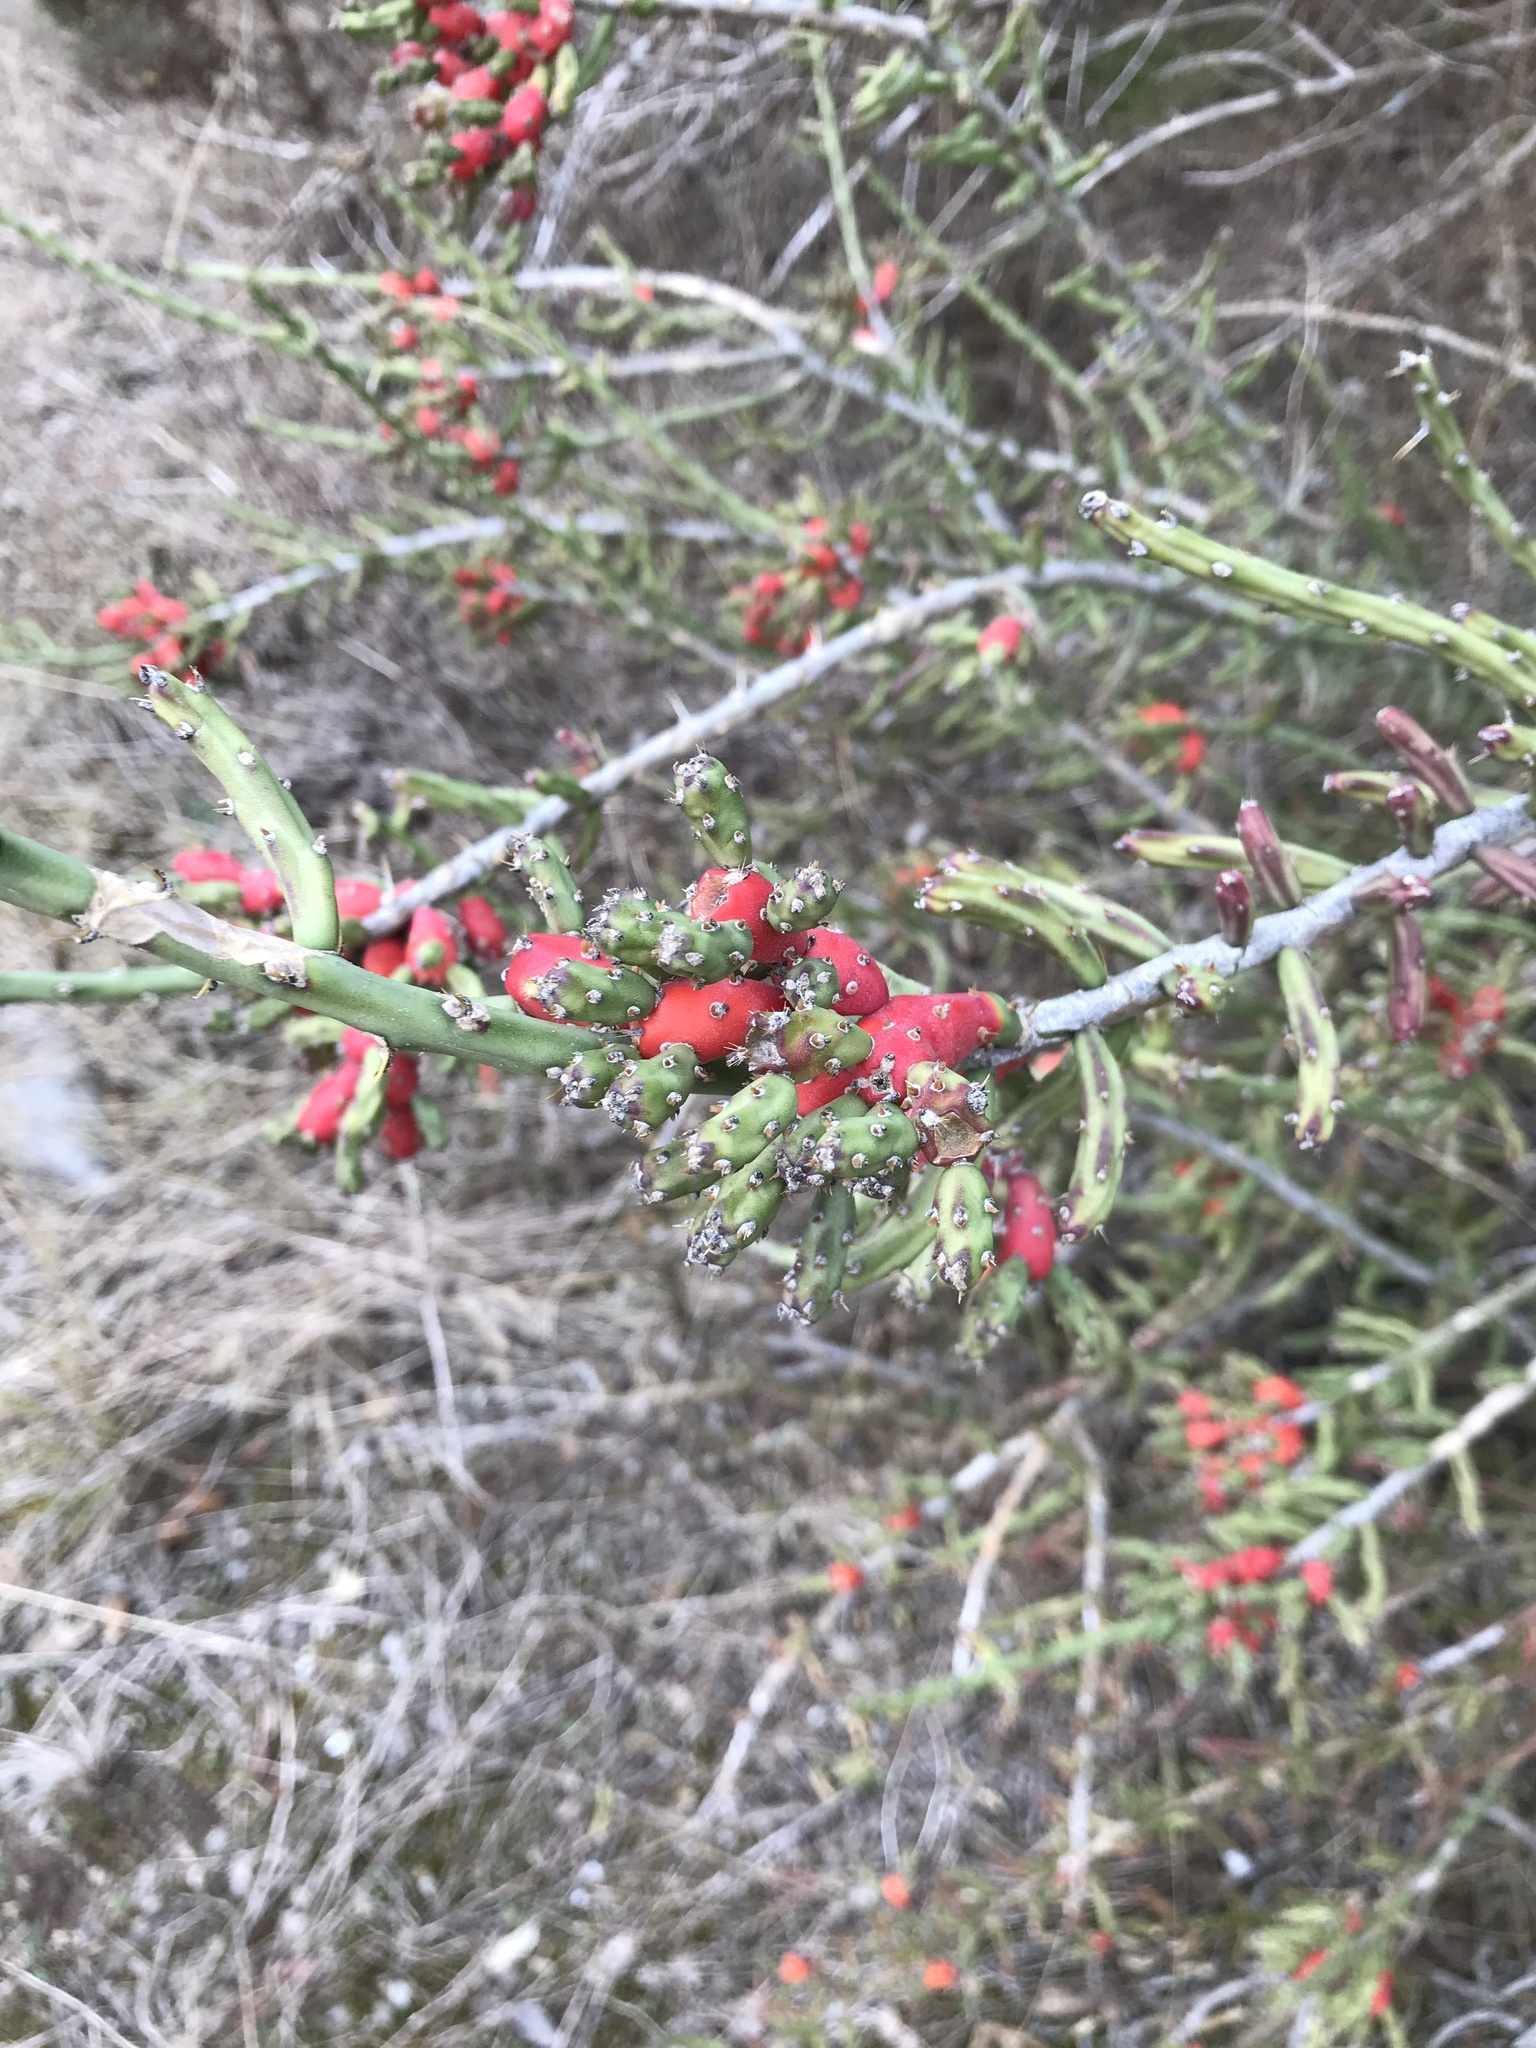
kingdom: Plantae
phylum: Tracheophyta
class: Magnoliopsida
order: Caryophyllales
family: Cactaceae
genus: Cylindropuntia
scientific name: Cylindropuntia leptocaulis
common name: Christmas cactus
